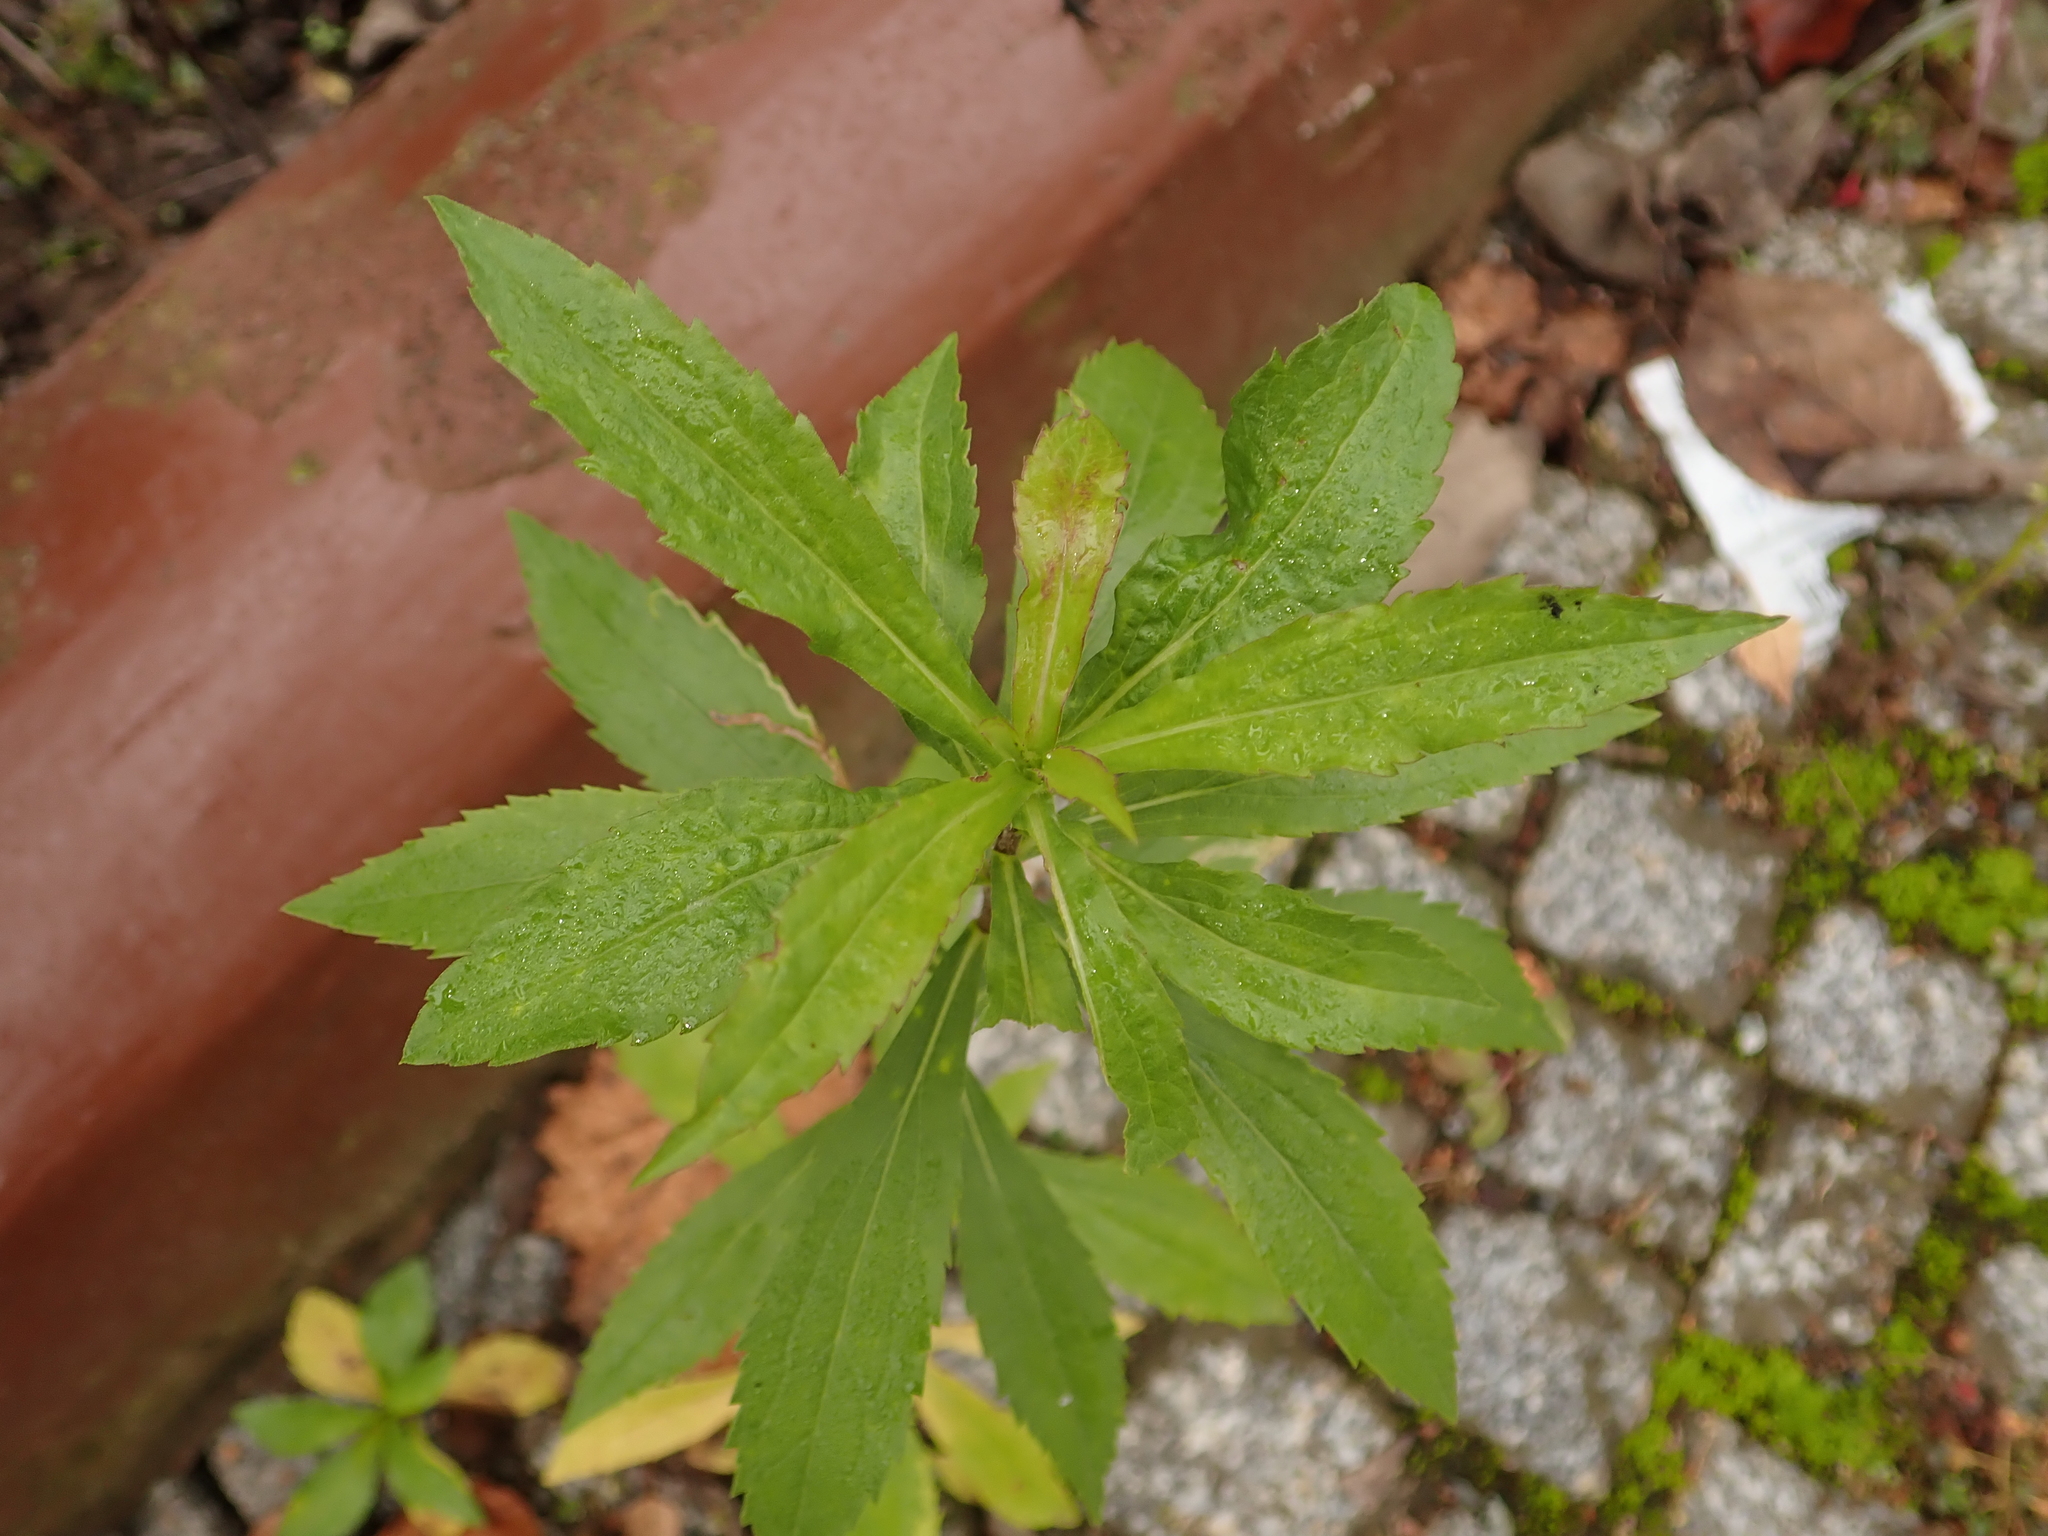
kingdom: Plantae
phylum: Tracheophyta
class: Magnoliopsida
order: Asterales
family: Asteraceae
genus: Solidago
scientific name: Solidago canadensis
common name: Canada goldenrod
